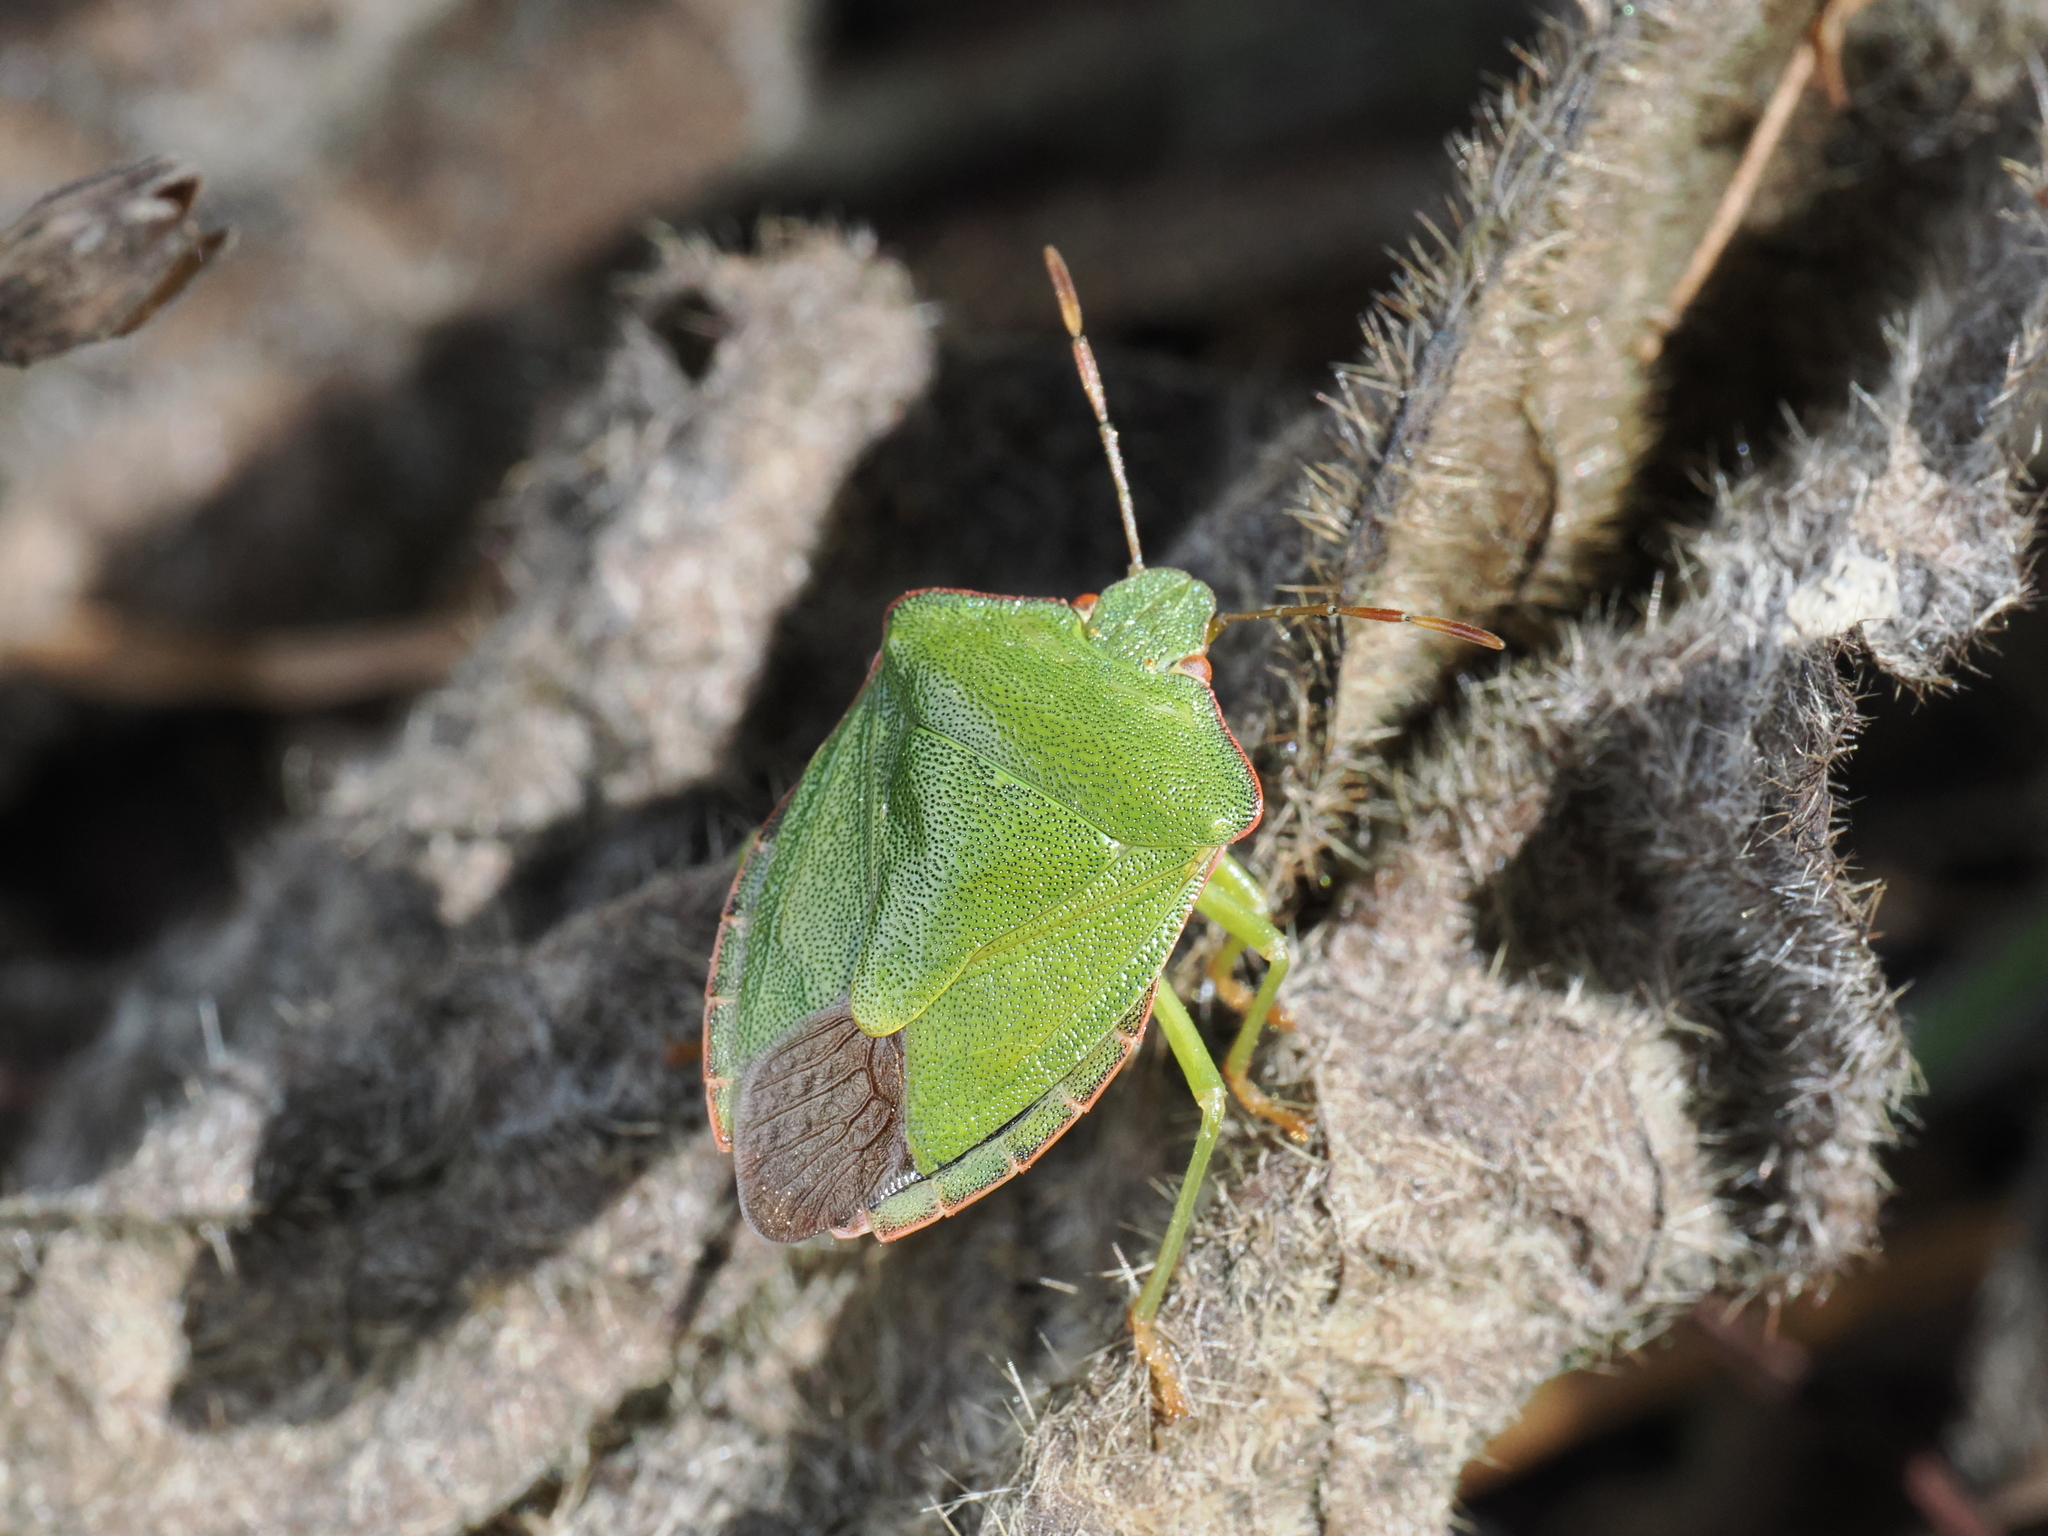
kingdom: Animalia
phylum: Arthropoda
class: Insecta
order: Hemiptera
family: Pentatomidae
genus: Palomena
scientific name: Palomena prasina
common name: Green shieldbug
